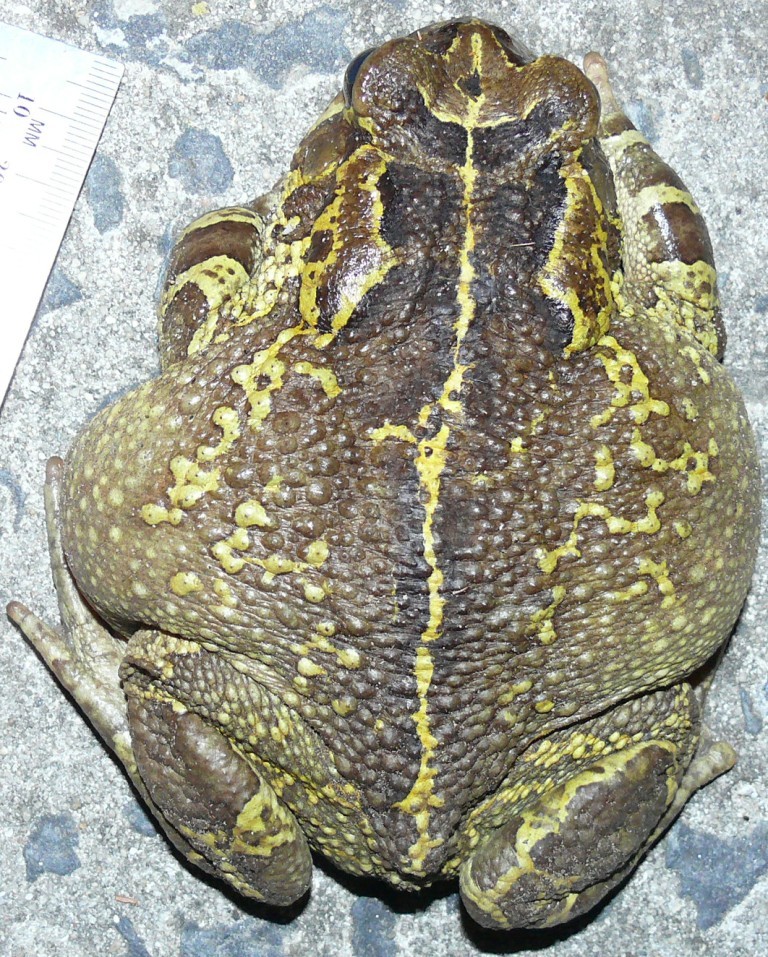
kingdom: Animalia
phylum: Chordata
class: Amphibia
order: Anura
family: Bufonidae
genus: Sclerophrys
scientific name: Sclerophrys pantherina
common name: Panther toad
